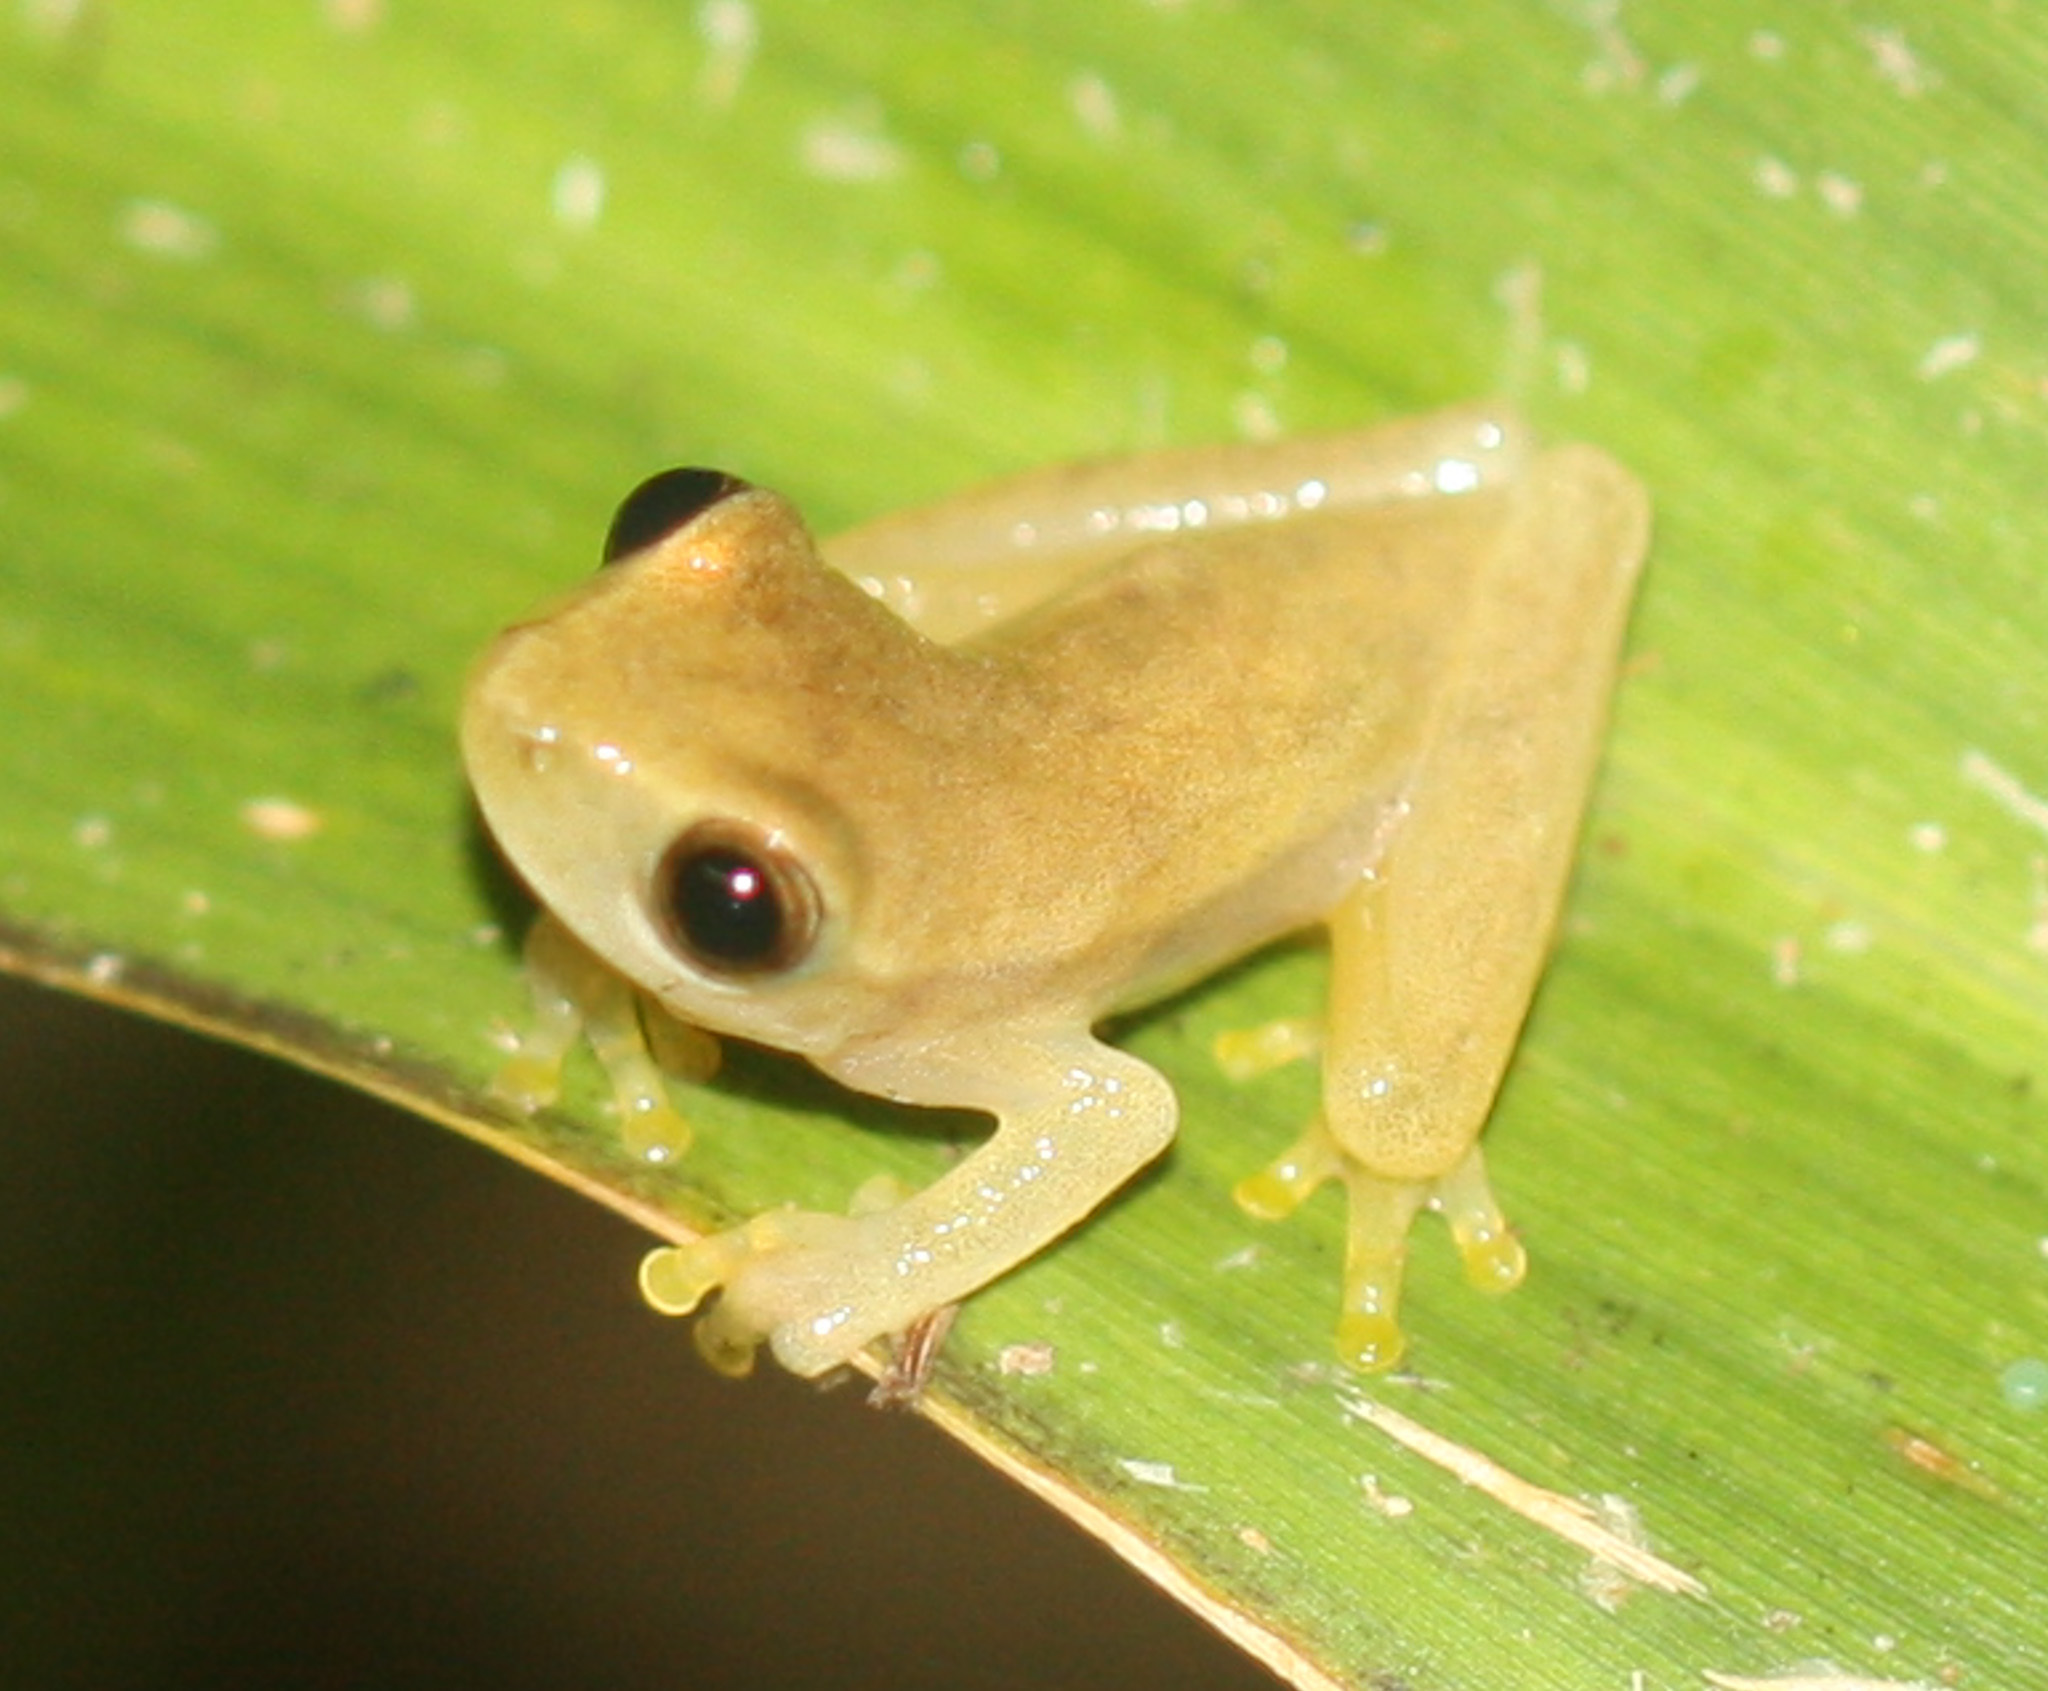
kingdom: Animalia
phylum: Chordata
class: Amphibia
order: Anura
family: Hylidae
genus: Dendropsophus
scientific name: Dendropsophus microcephalus
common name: Small-headed treefrog
